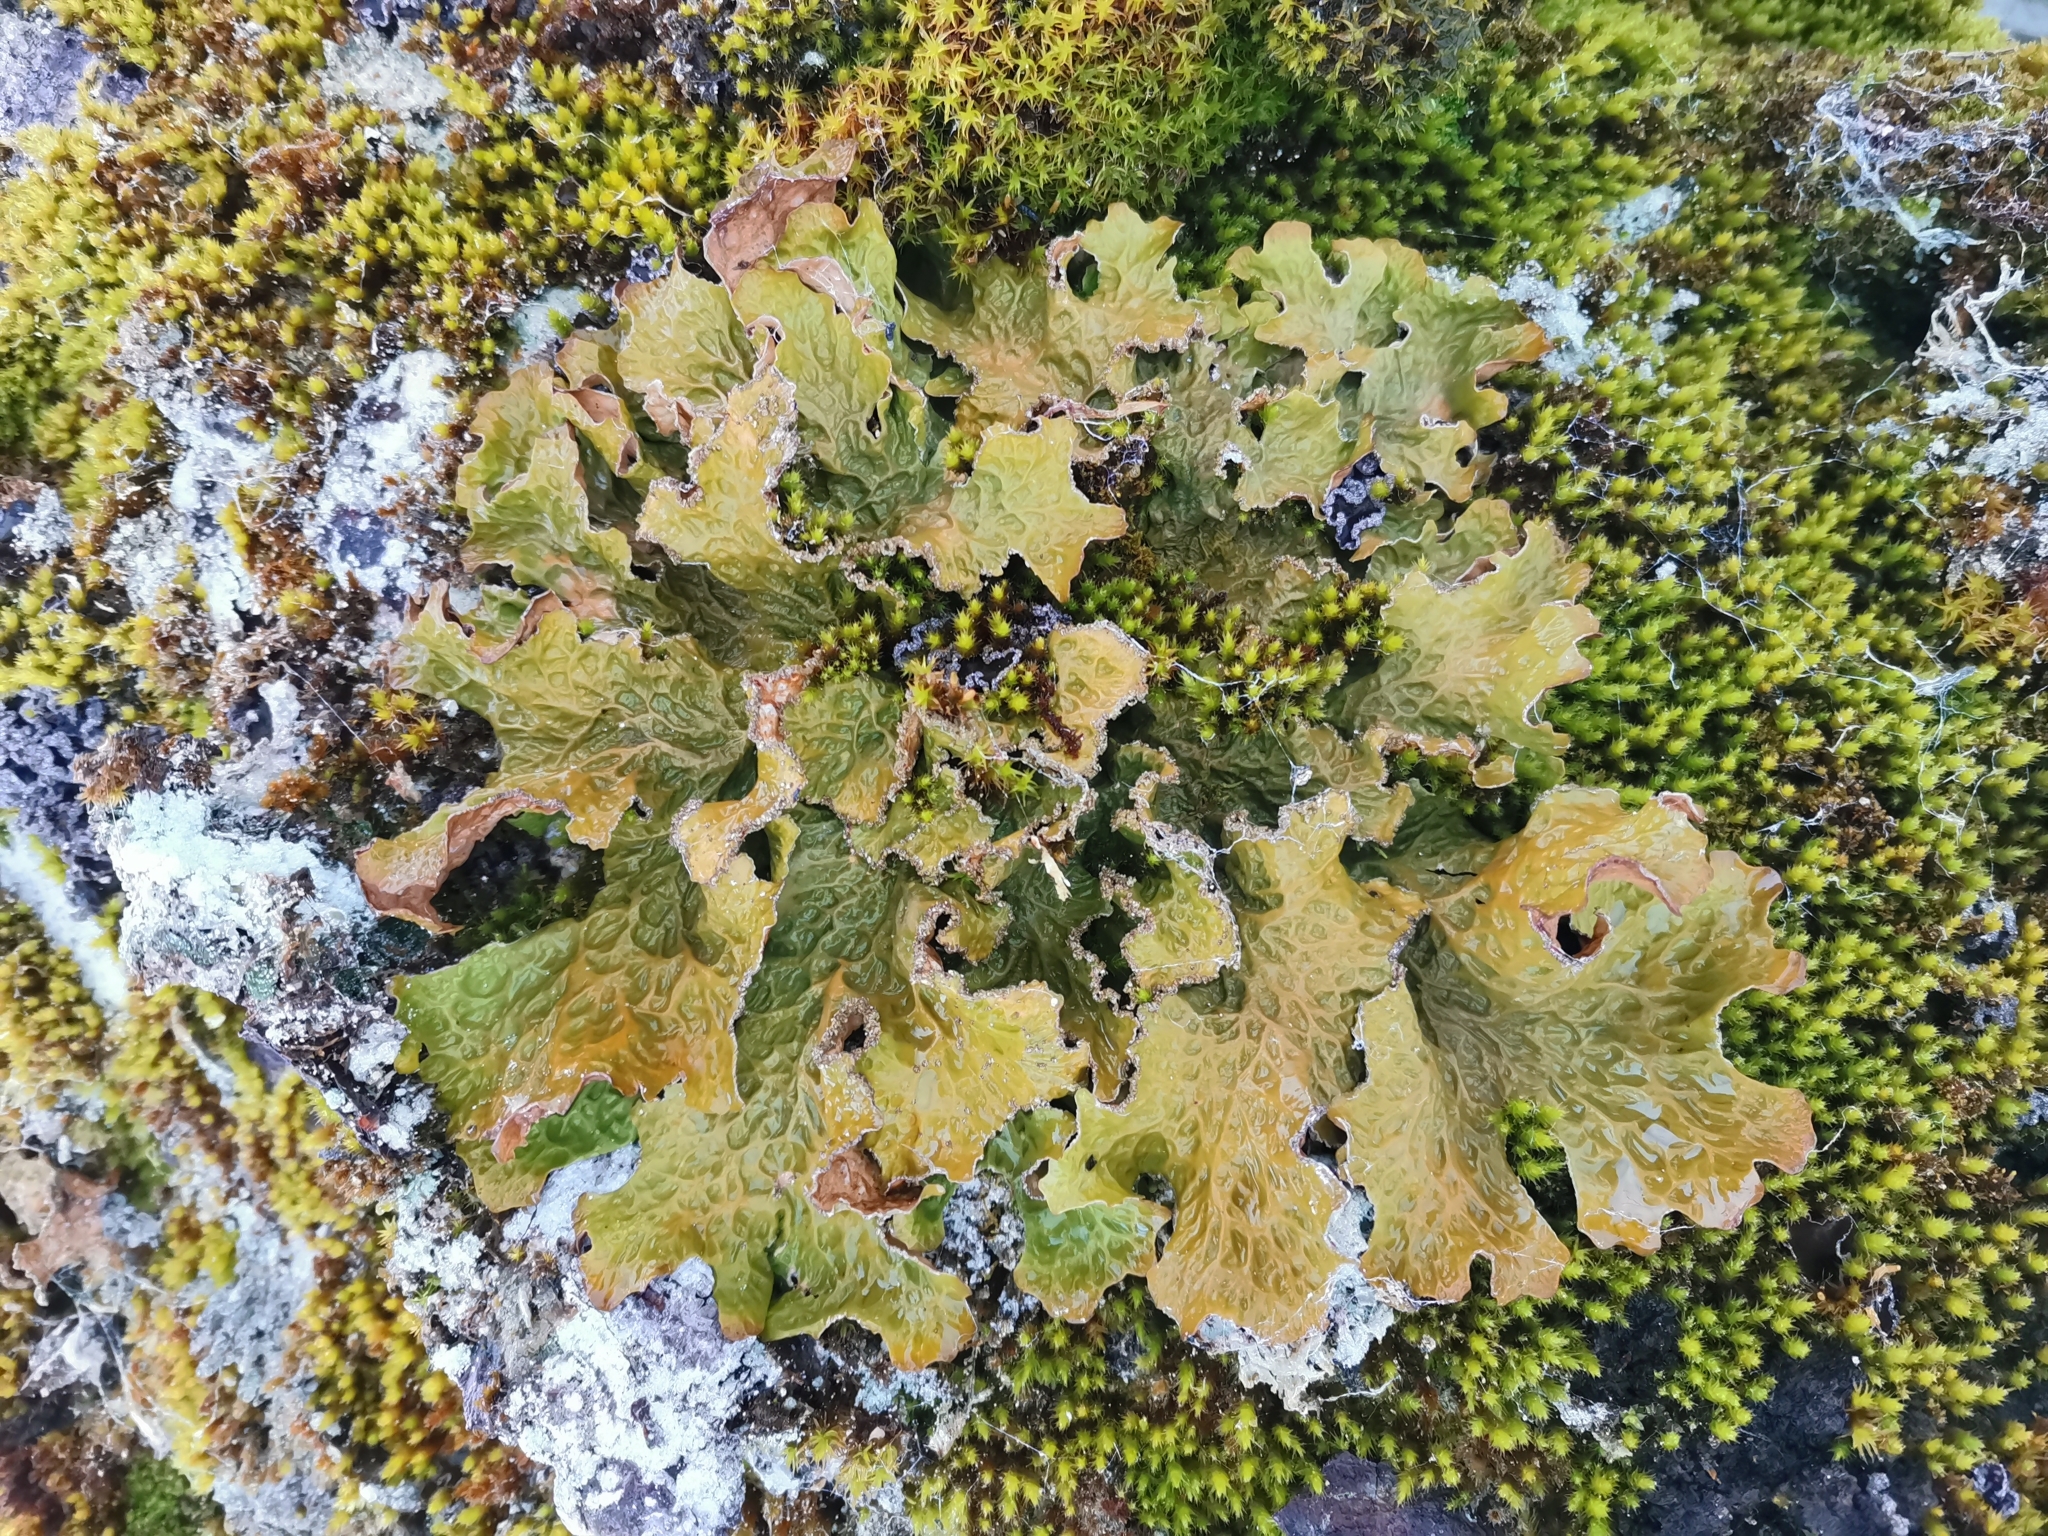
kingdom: Fungi
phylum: Ascomycota
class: Lecanoromycetes
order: Peltigerales
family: Lobariaceae
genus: Lobaria
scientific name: Lobaria pulmonaria
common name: Lungwort
